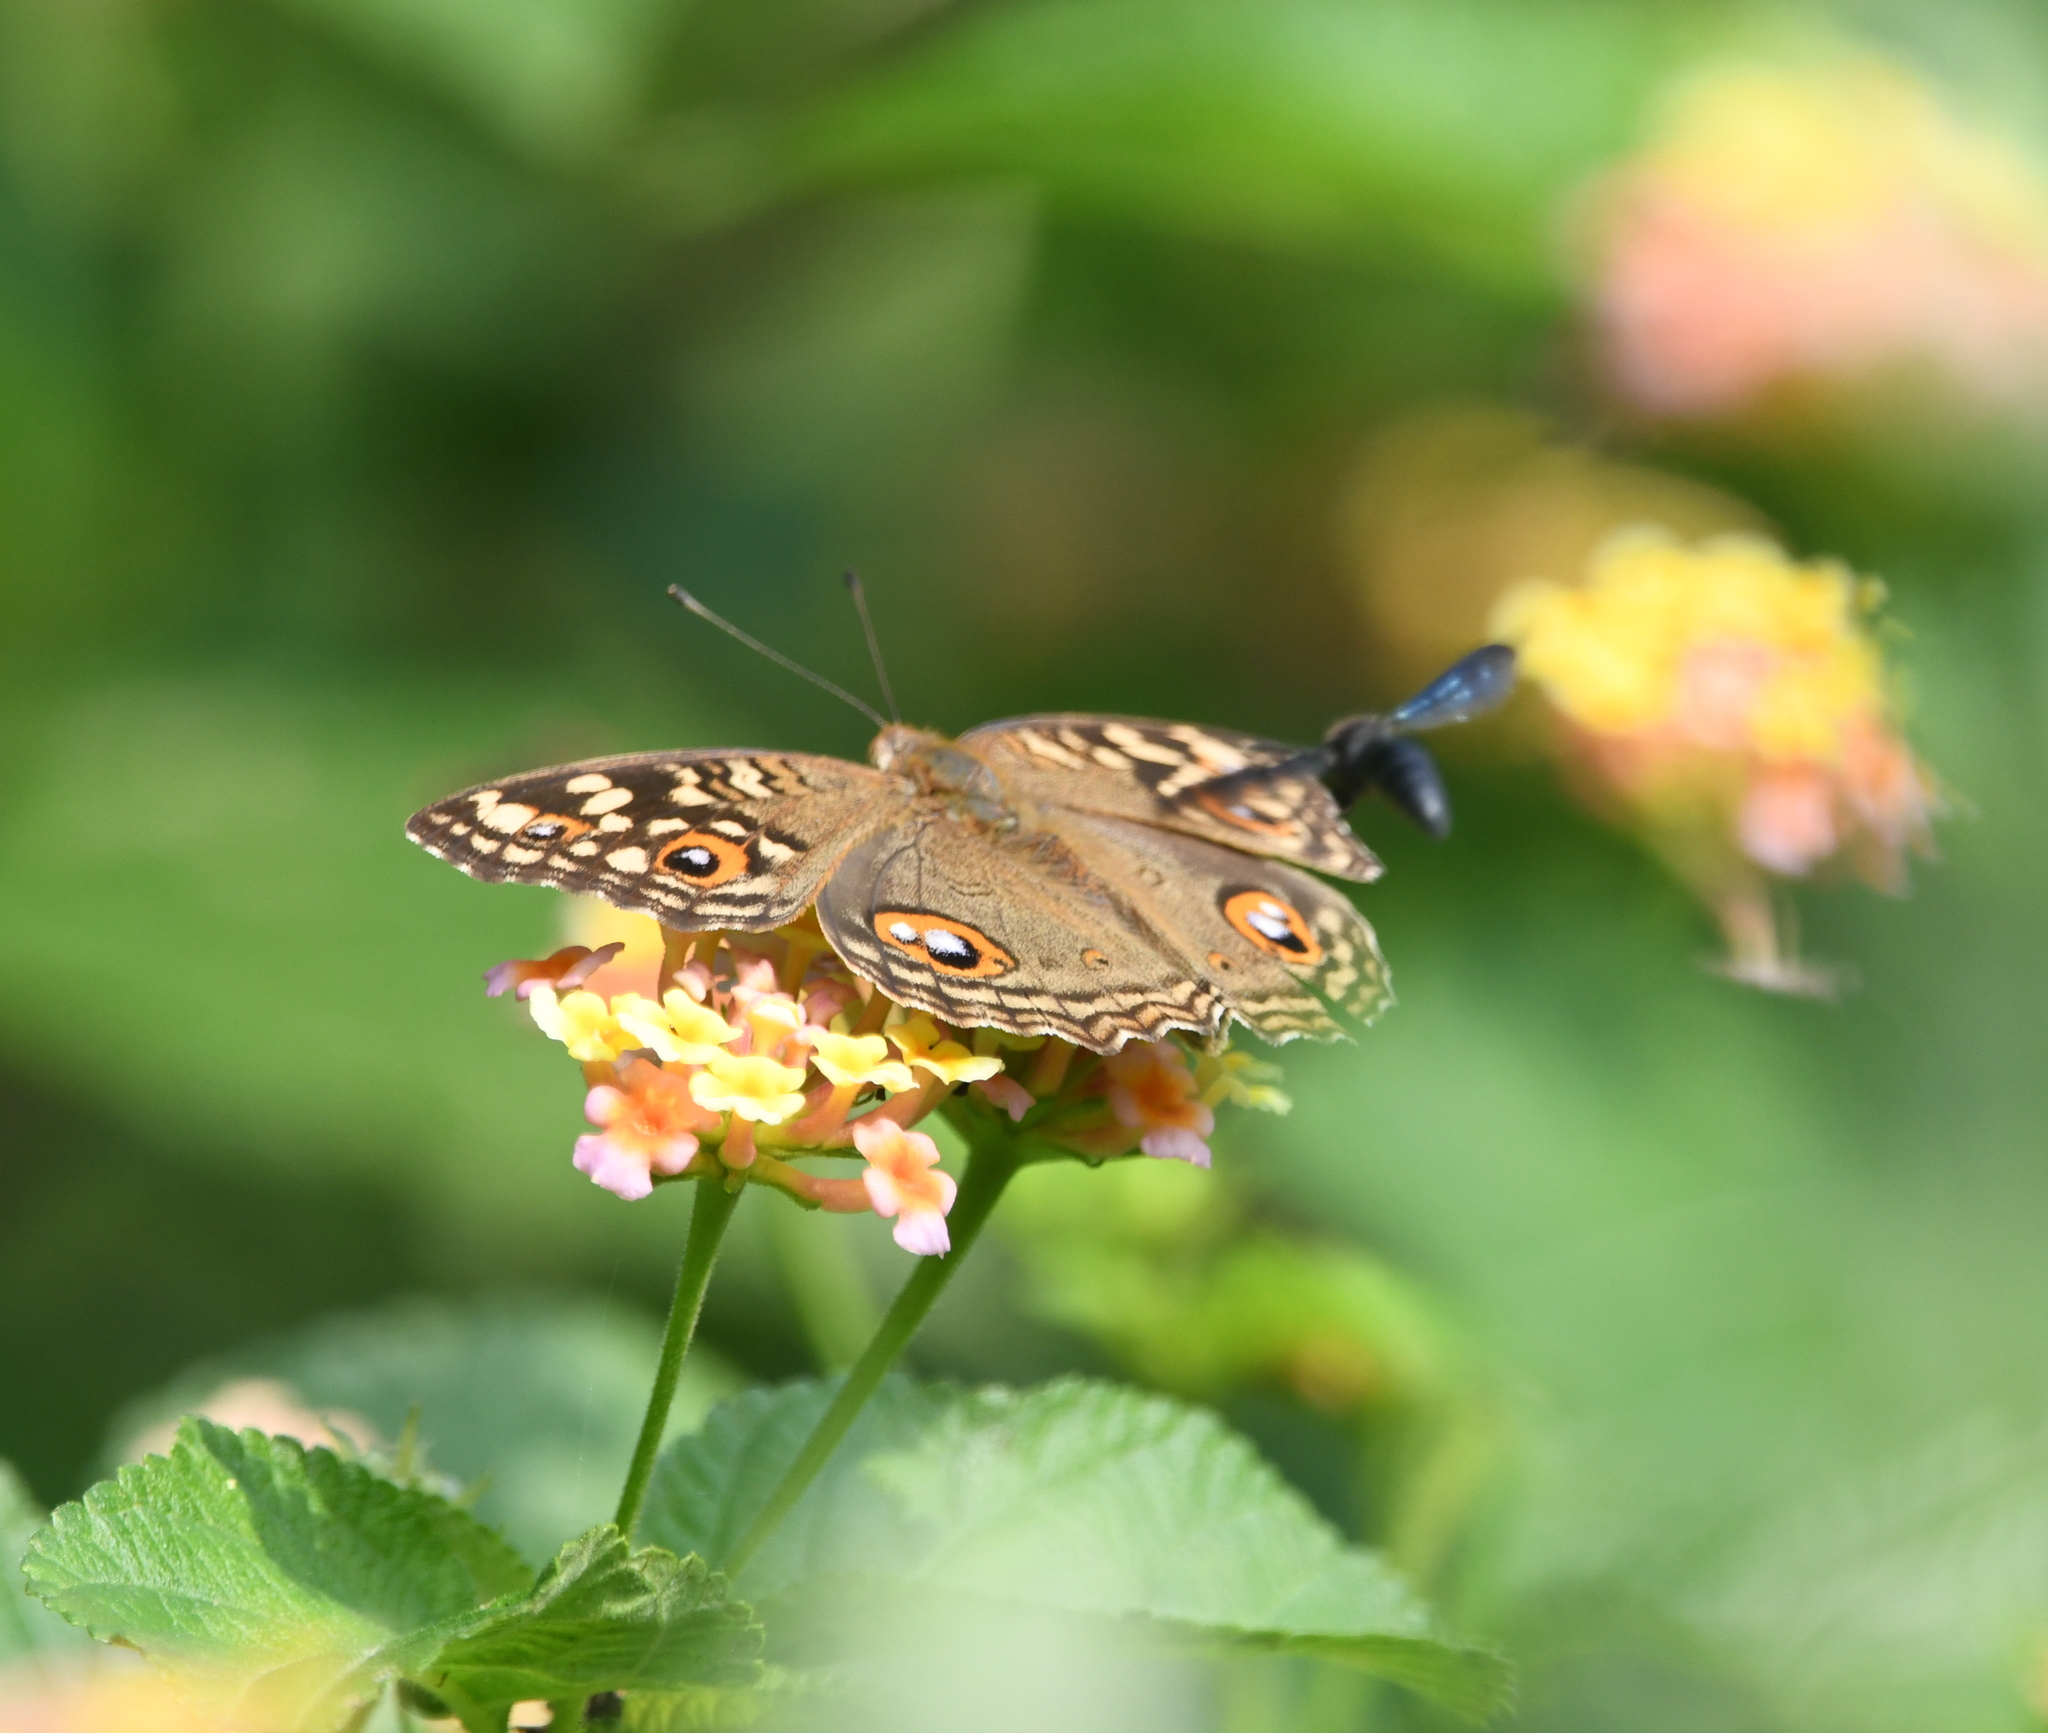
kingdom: Animalia
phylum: Arthropoda
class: Insecta
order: Lepidoptera
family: Nymphalidae
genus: Junonia
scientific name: Junonia lemonias
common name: Lemon pansy
